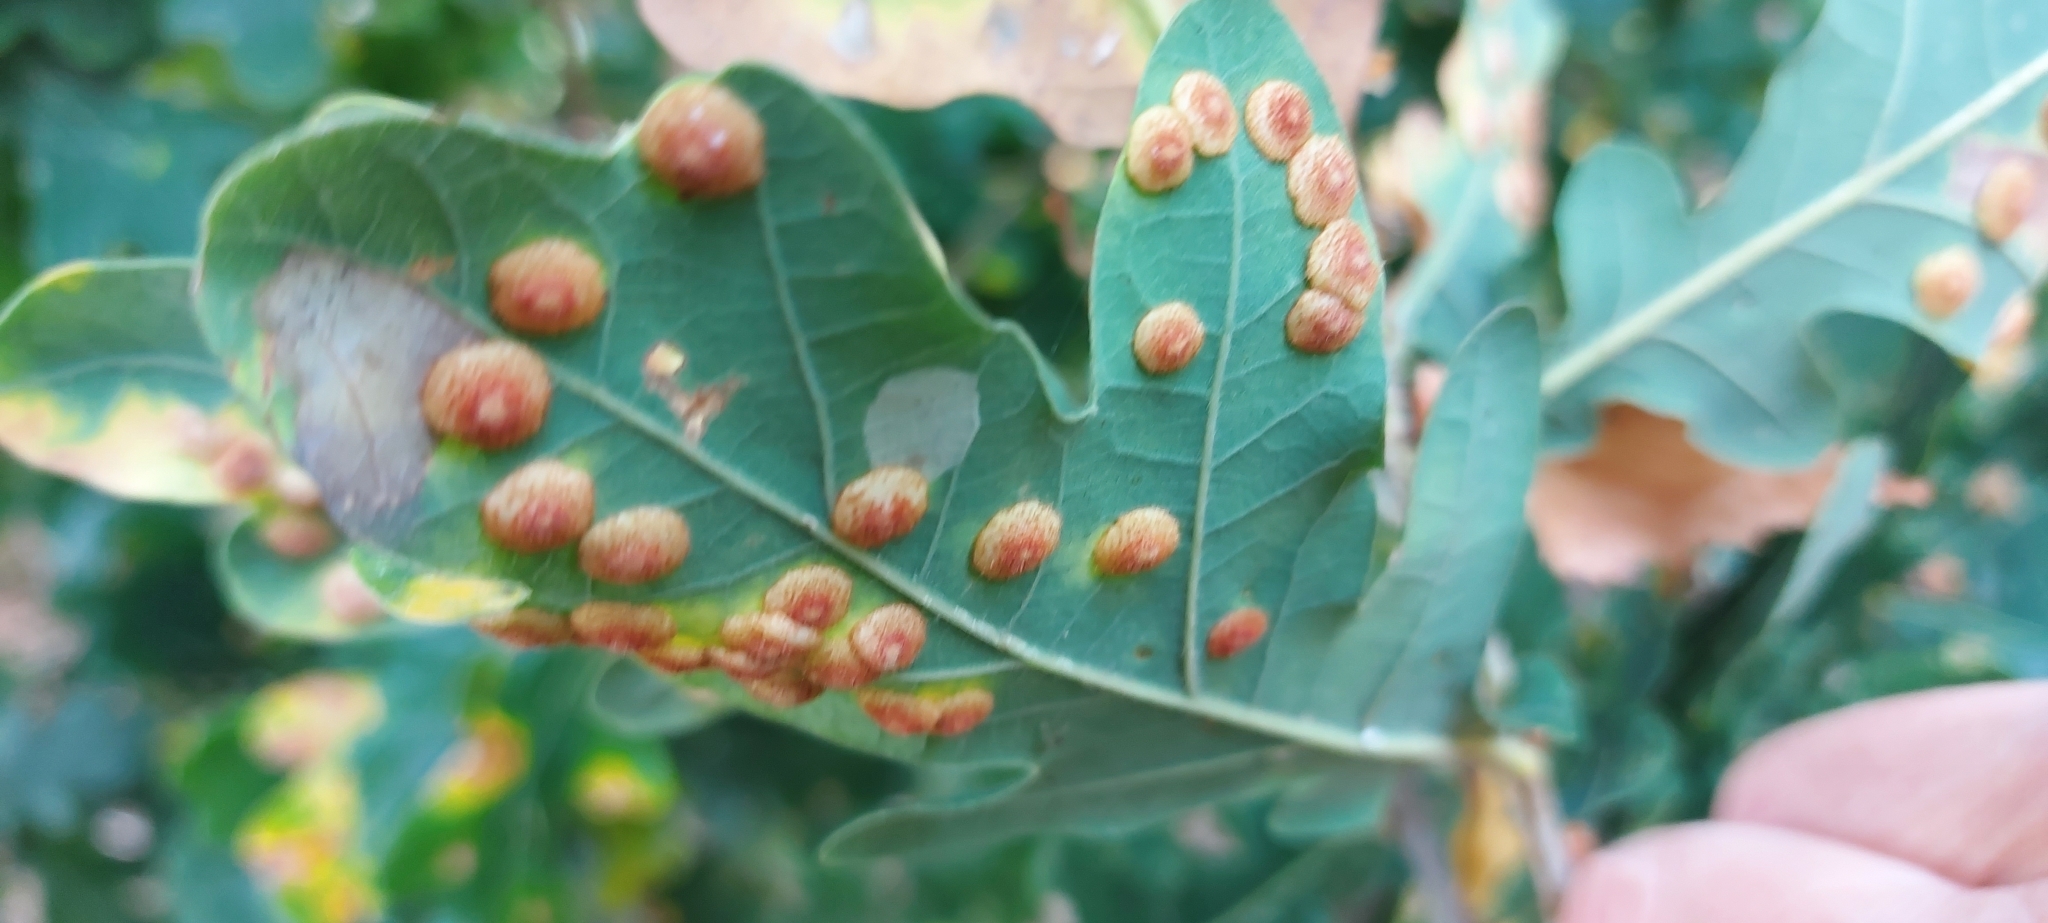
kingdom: Animalia
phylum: Arthropoda
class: Insecta
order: Hymenoptera
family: Cynipidae
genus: Neuroterus
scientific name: Neuroterus quercusbaccarum
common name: Common spangle gall
